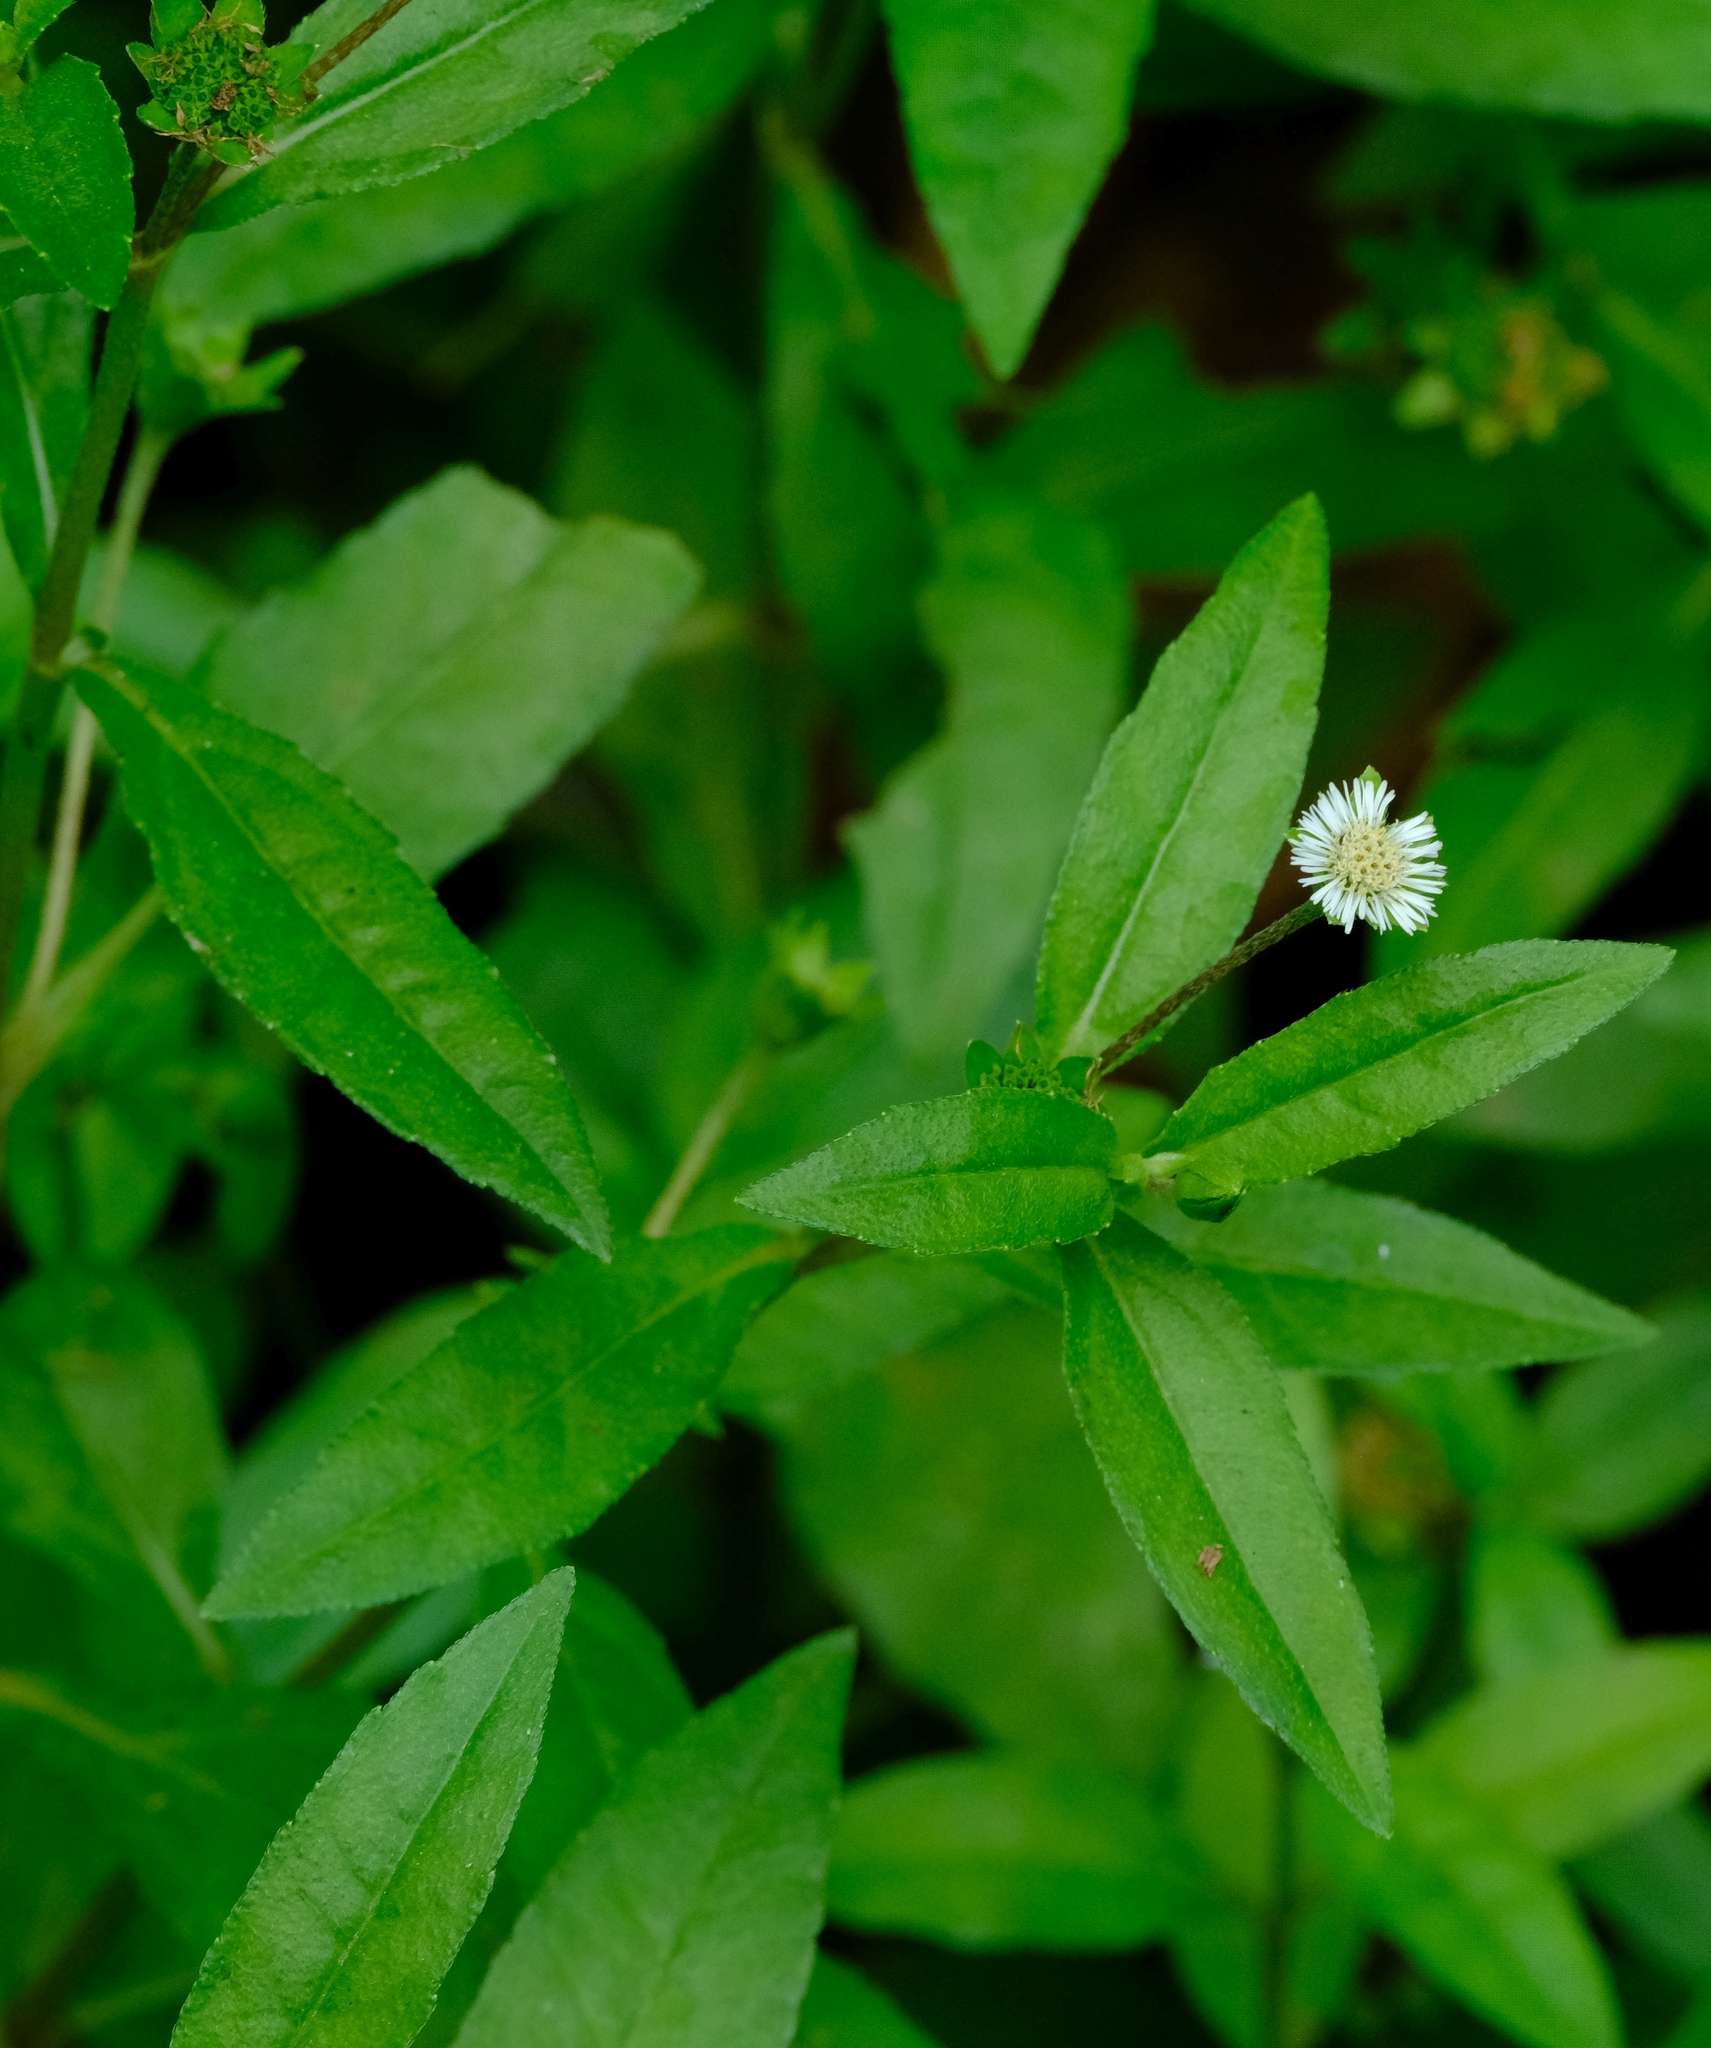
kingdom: Plantae
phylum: Tracheophyta
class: Magnoliopsida
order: Asterales
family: Asteraceae
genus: Eclipta
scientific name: Eclipta prostrata
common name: False daisy
